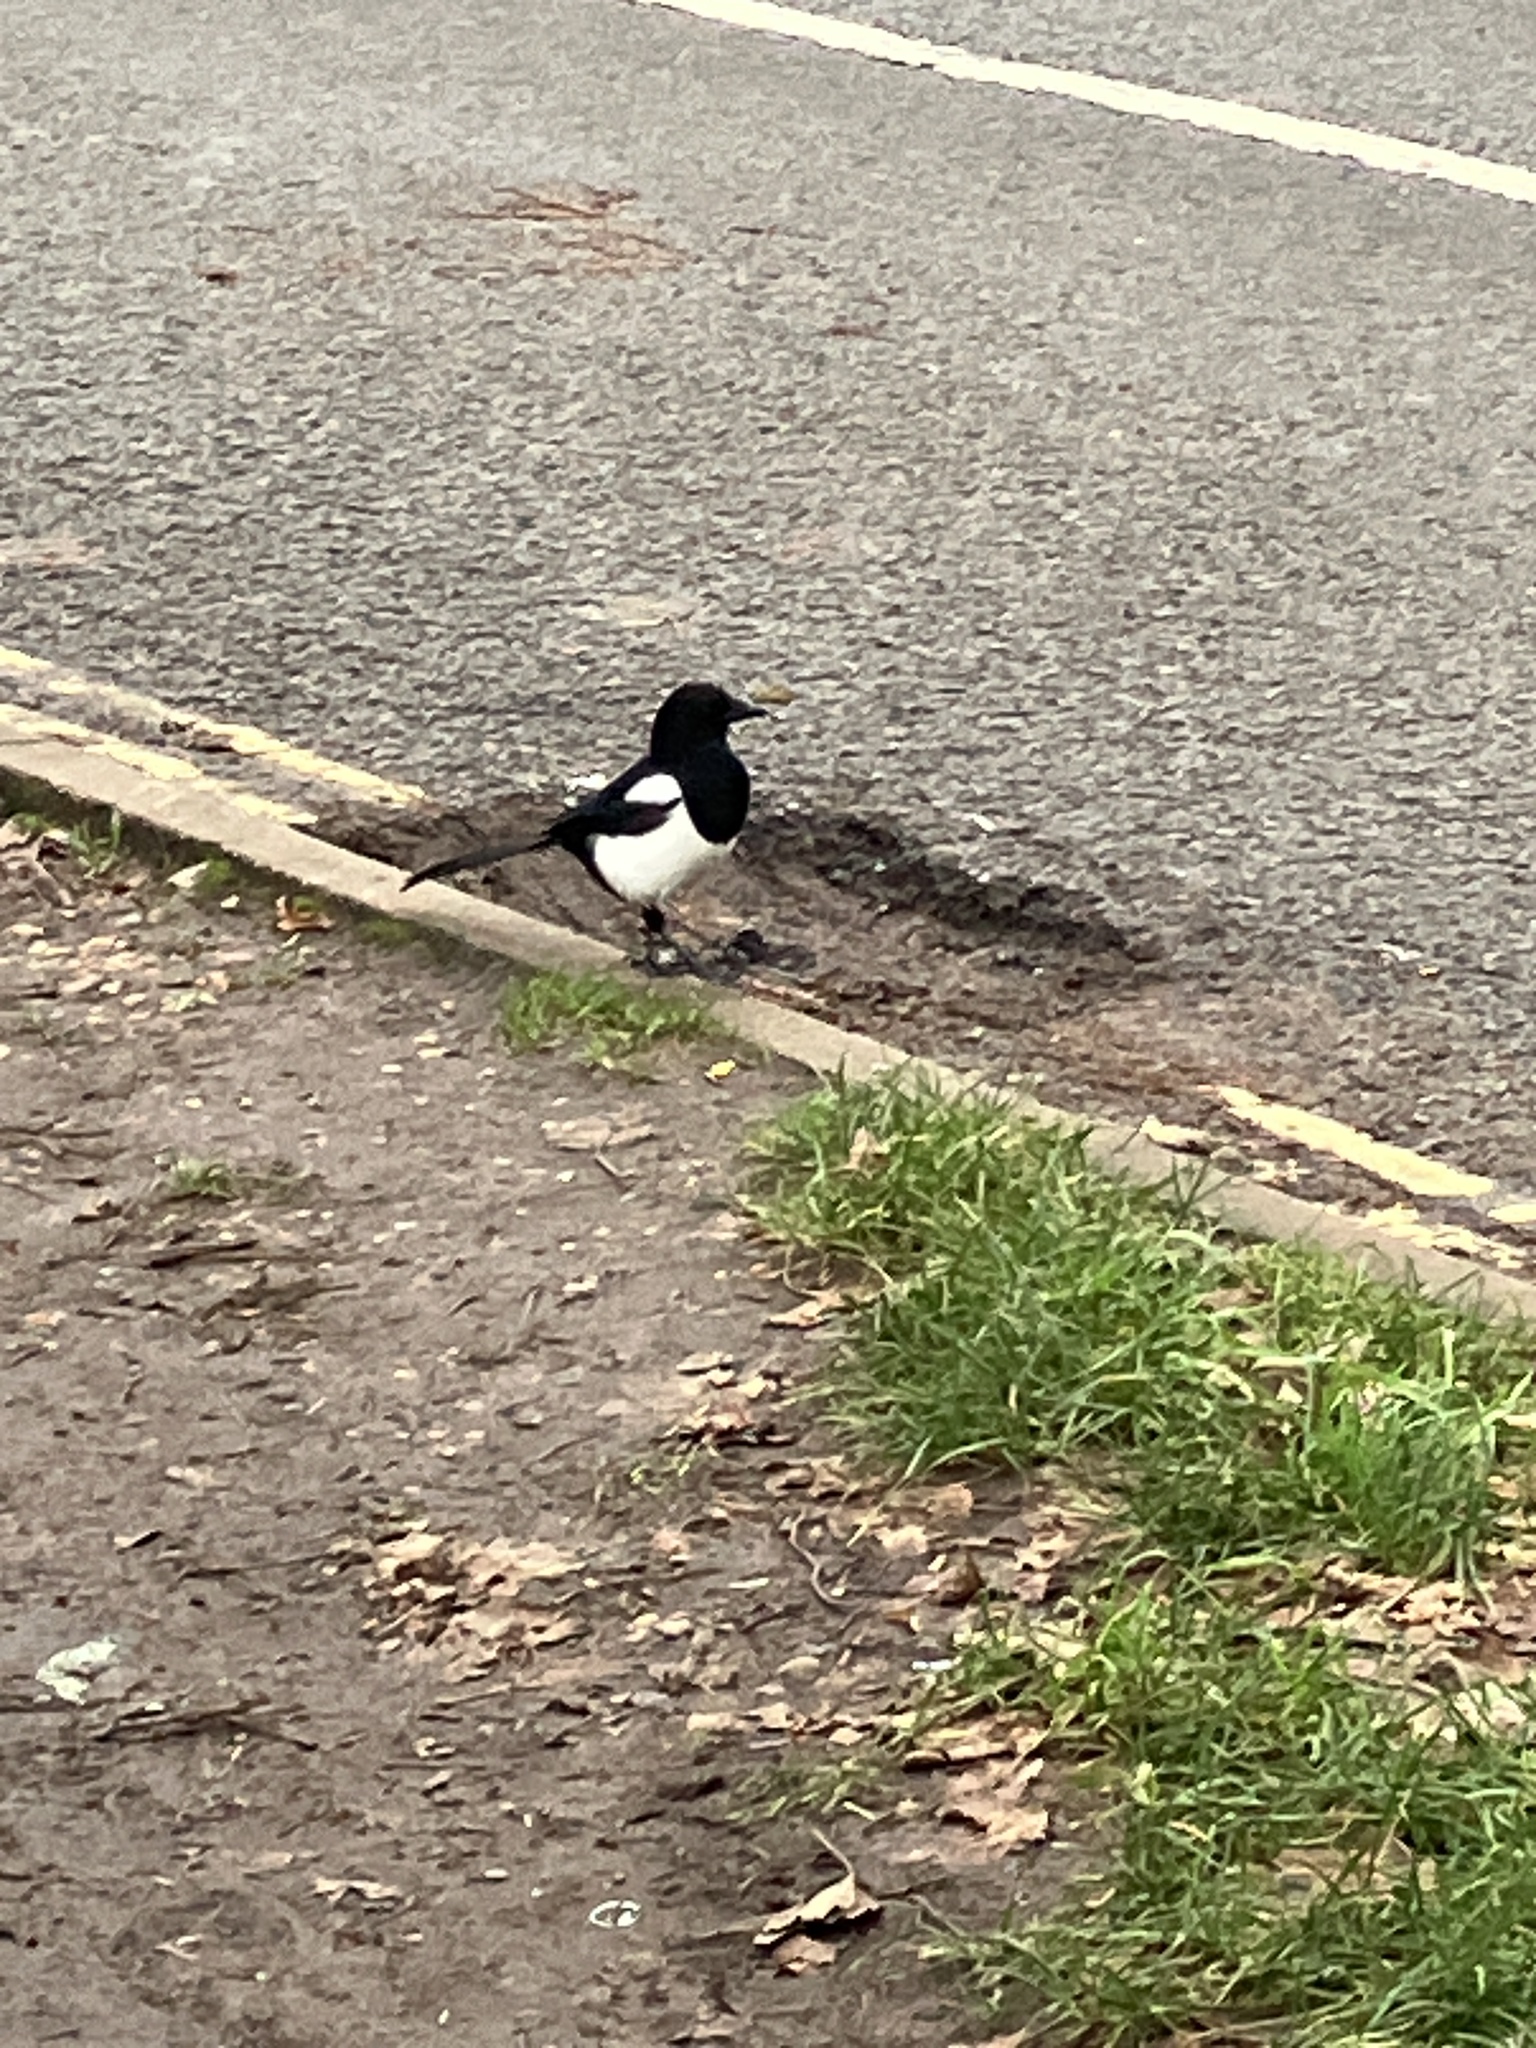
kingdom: Animalia
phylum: Chordata
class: Aves
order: Passeriformes
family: Corvidae
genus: Pica
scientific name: Pica pica
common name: Eurasian magpie
